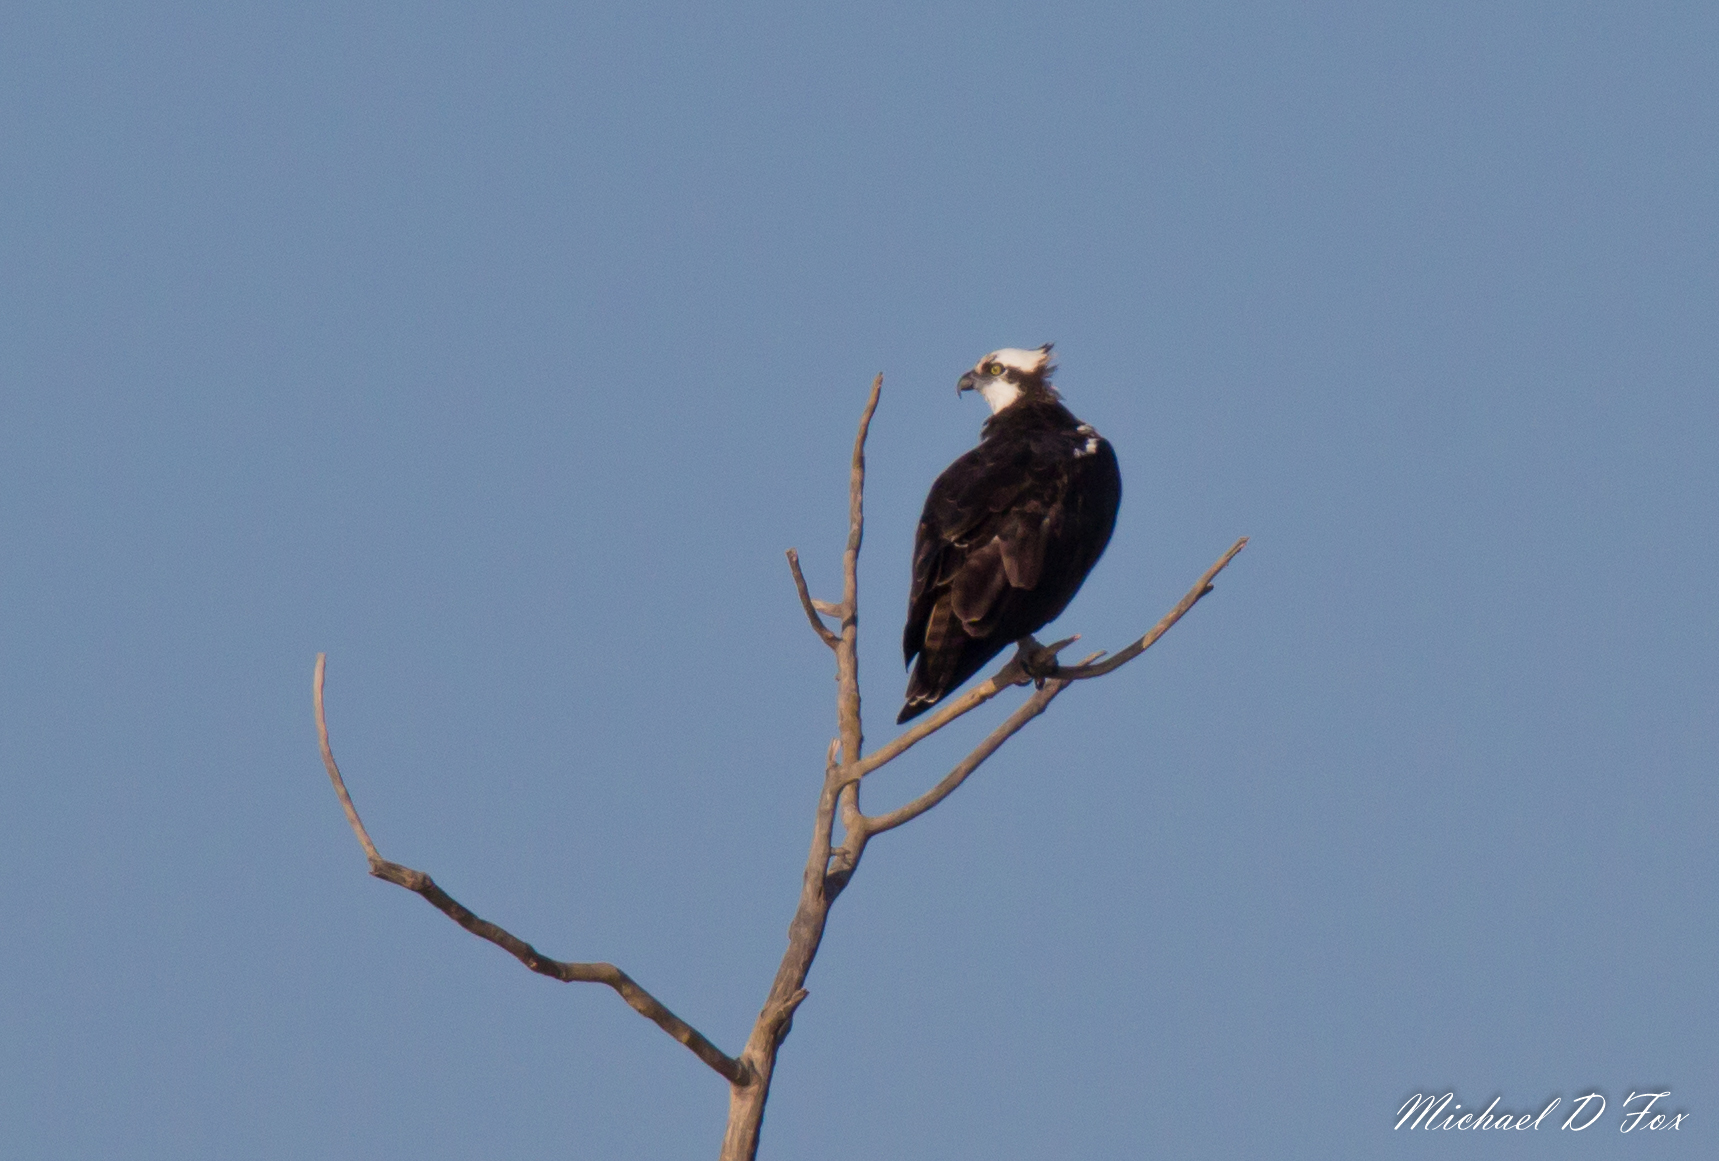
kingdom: Animalia
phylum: Chordata
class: Aves
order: Accipitriformes
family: Pandionidae
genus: Pandion
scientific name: Pandion haliaetus
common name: Osprey
